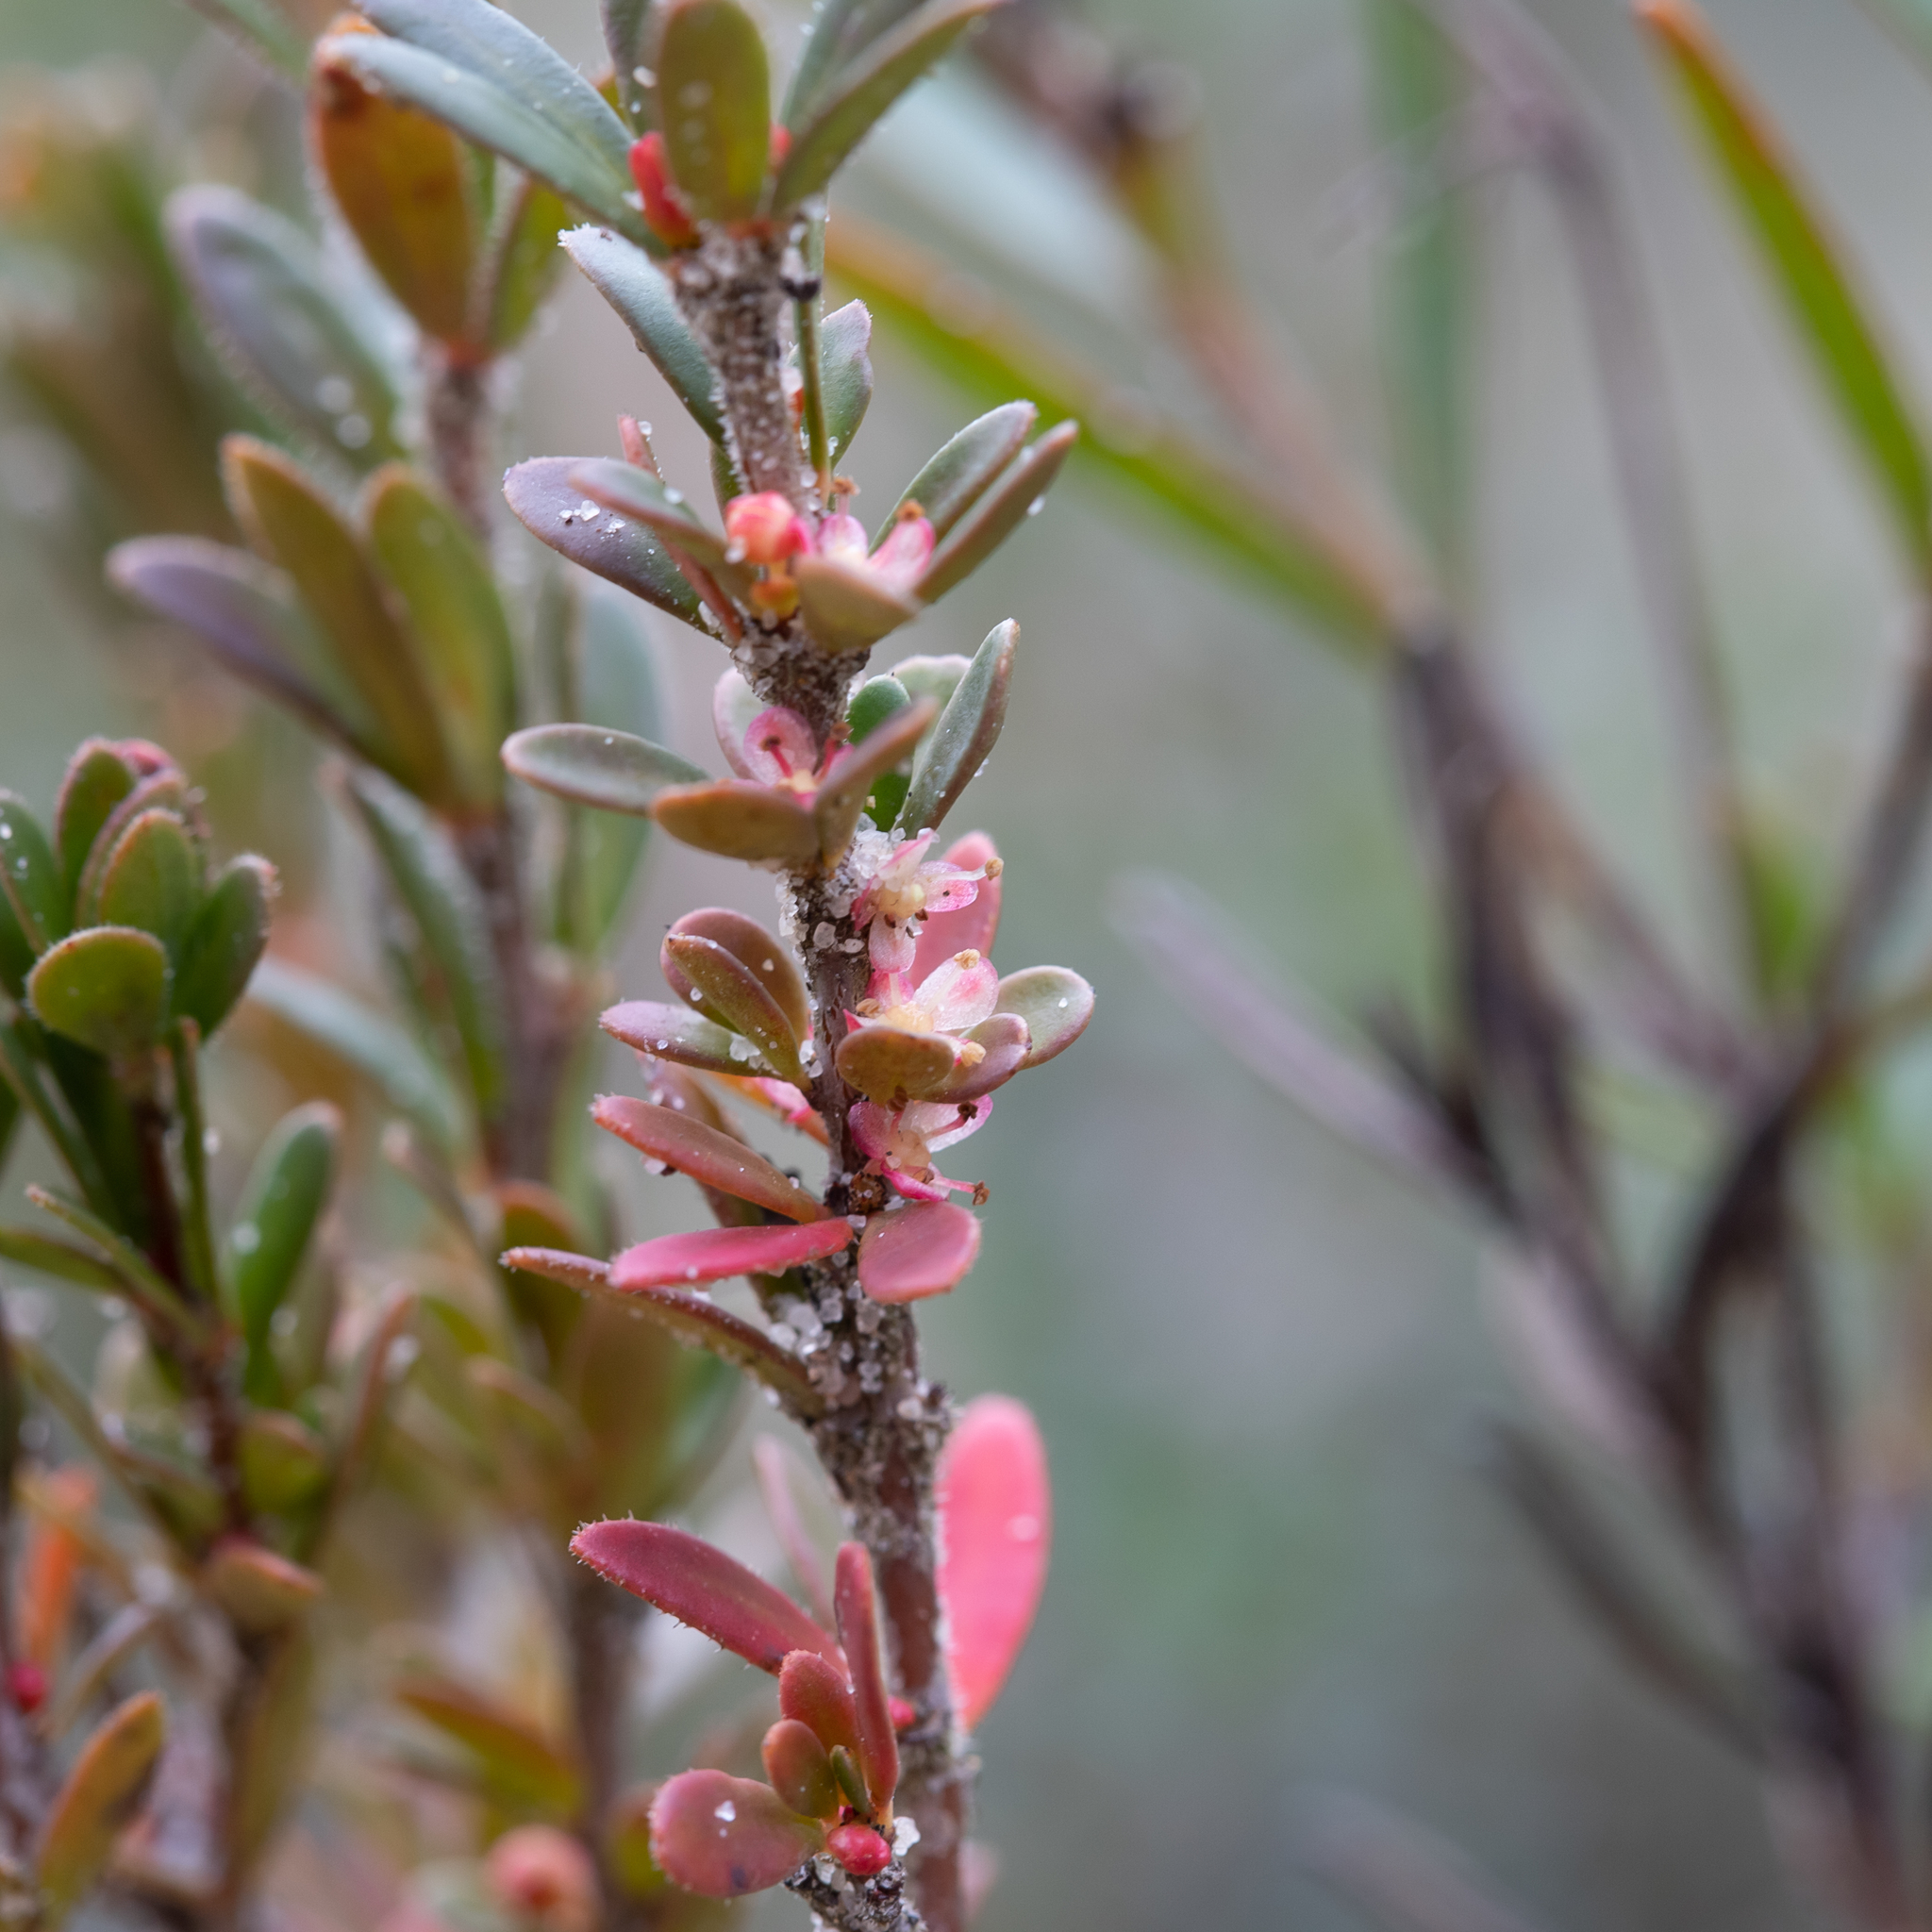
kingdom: Plantae
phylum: Tracheophyta
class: Magnoliopsida
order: Malpighiales
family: Picrodendraceae
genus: Micrantheum
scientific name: Micrantheum demissum
